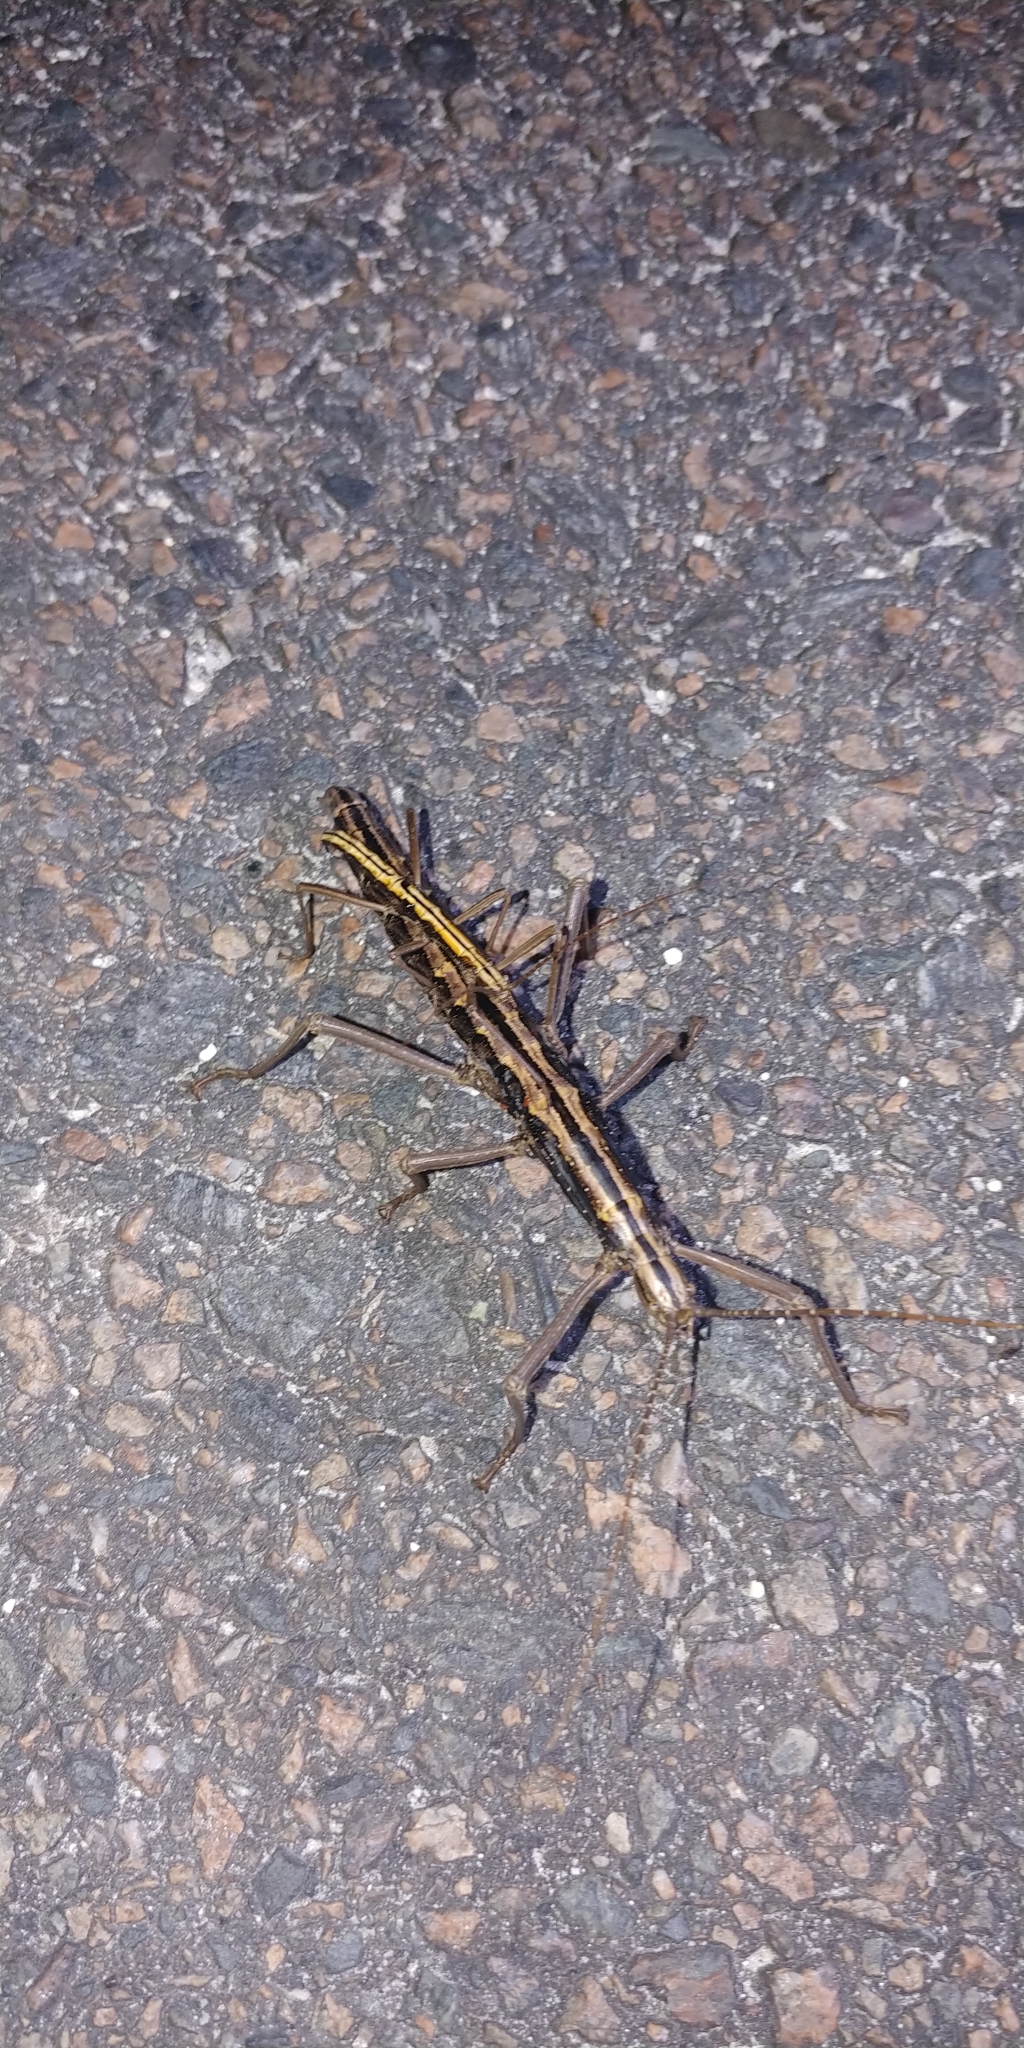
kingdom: Animalia
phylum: Arthropoda
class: Insecta
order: Phasmida
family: Pseudophasmatidae
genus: Anisomorpha
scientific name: Anisomorpha buprestoides
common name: Florida stick insect
